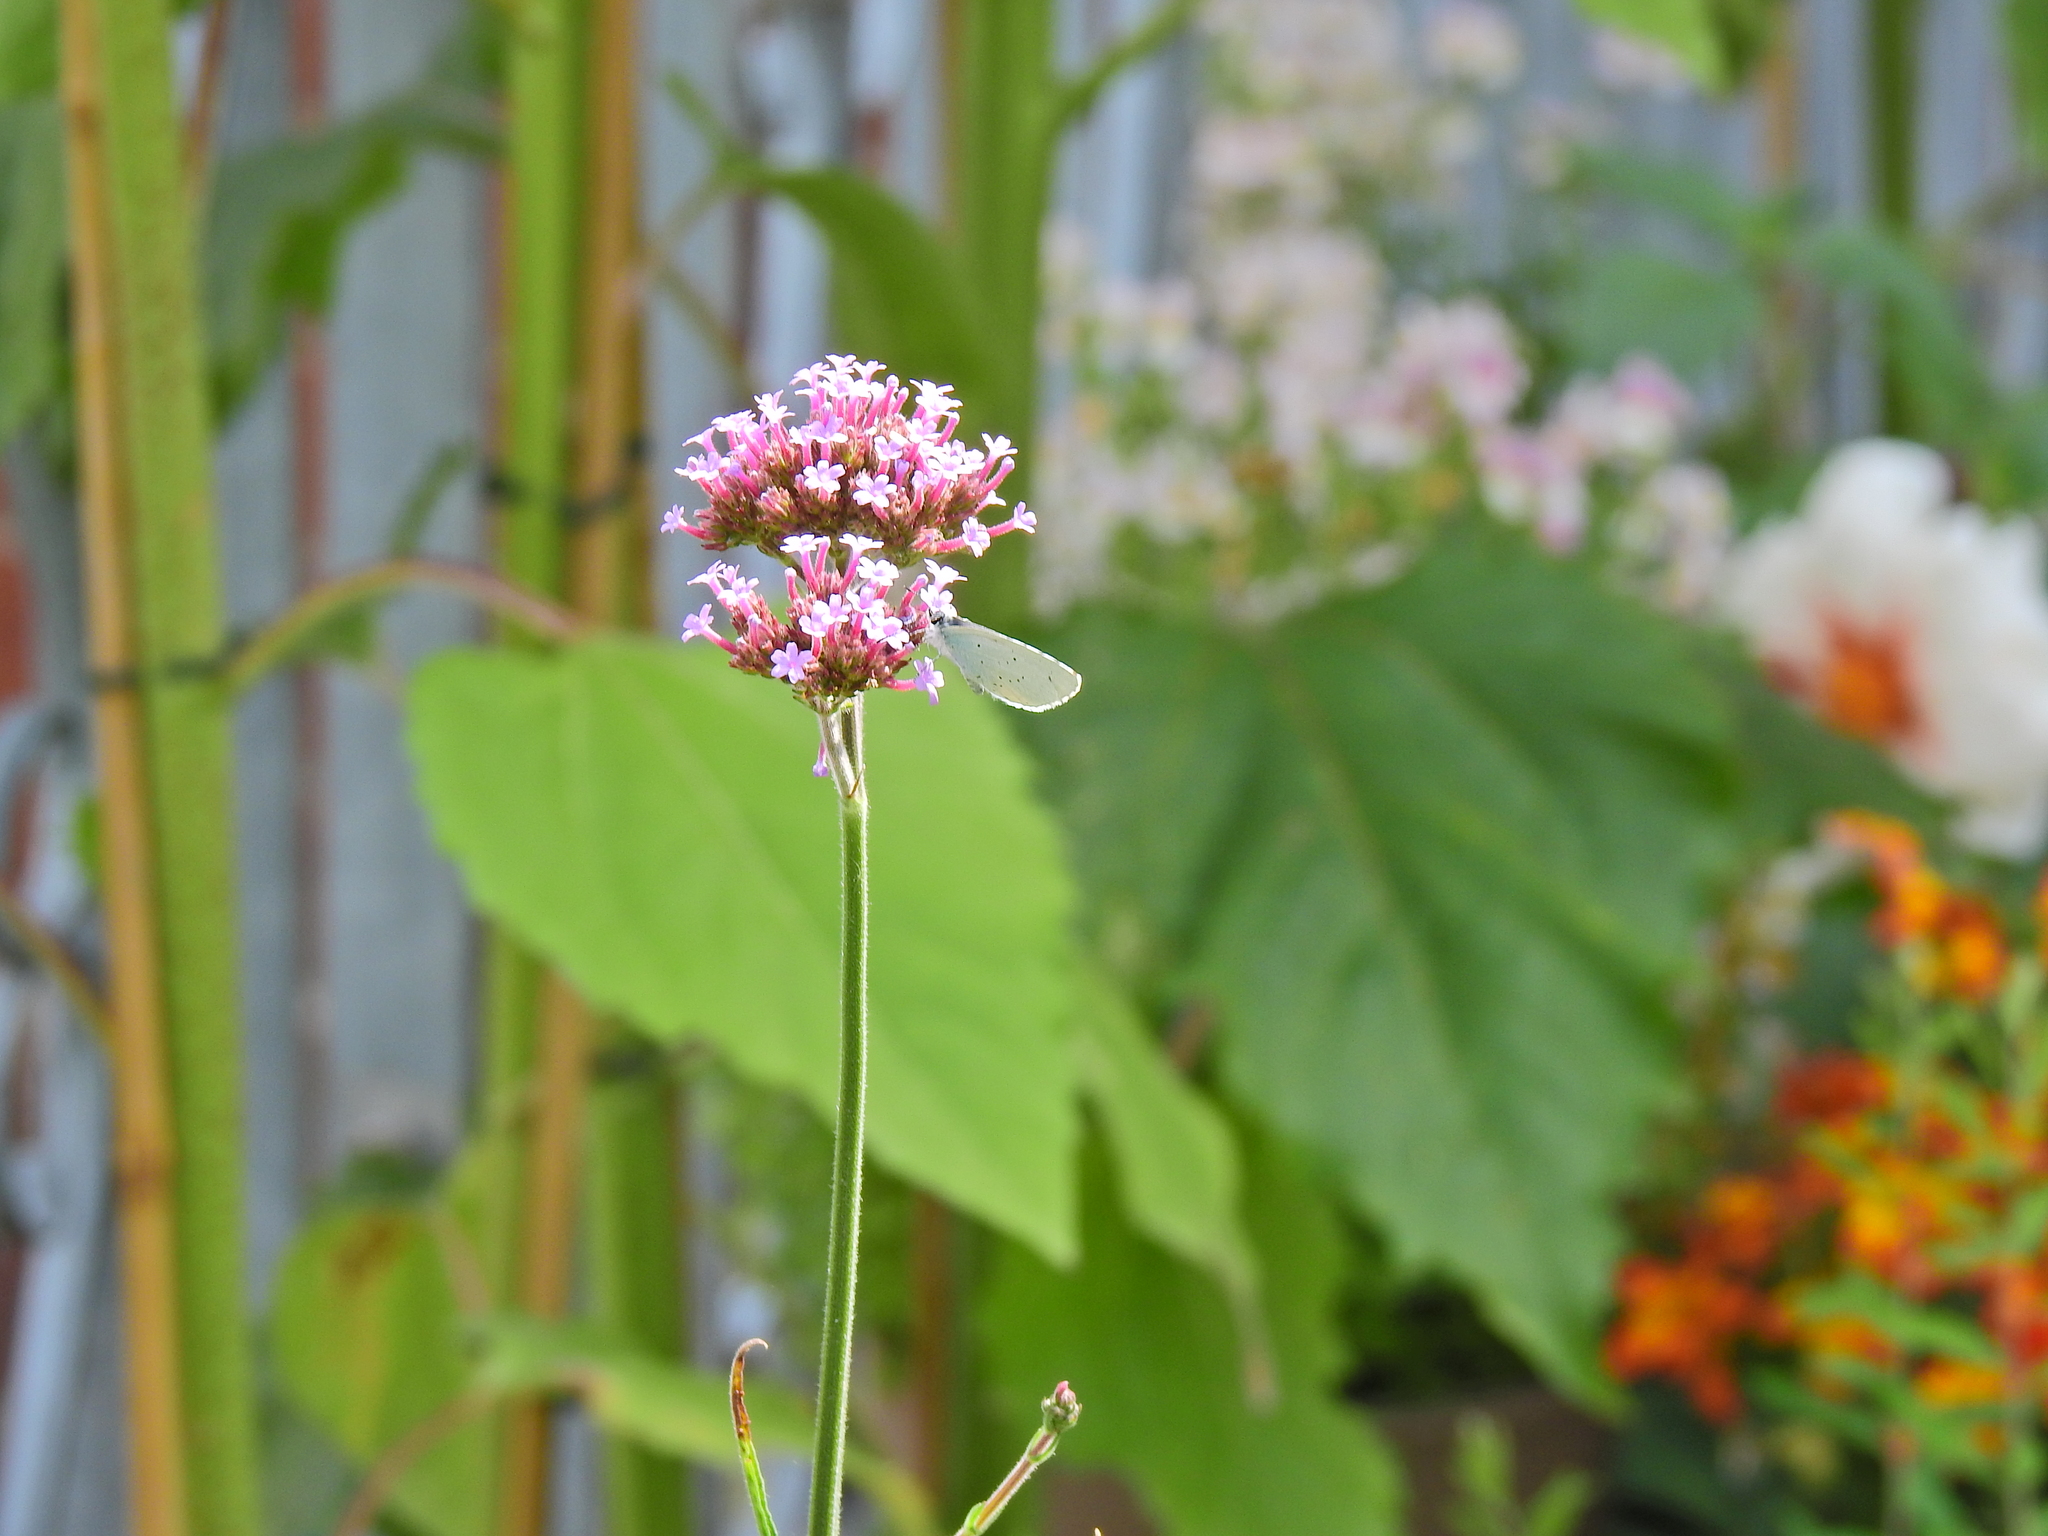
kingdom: Animalia
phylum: Arthropoda
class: Insecta
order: Lepidoptera
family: Lycaenidae
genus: Celastrina
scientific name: Celastrina argiolus
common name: Holly blue
